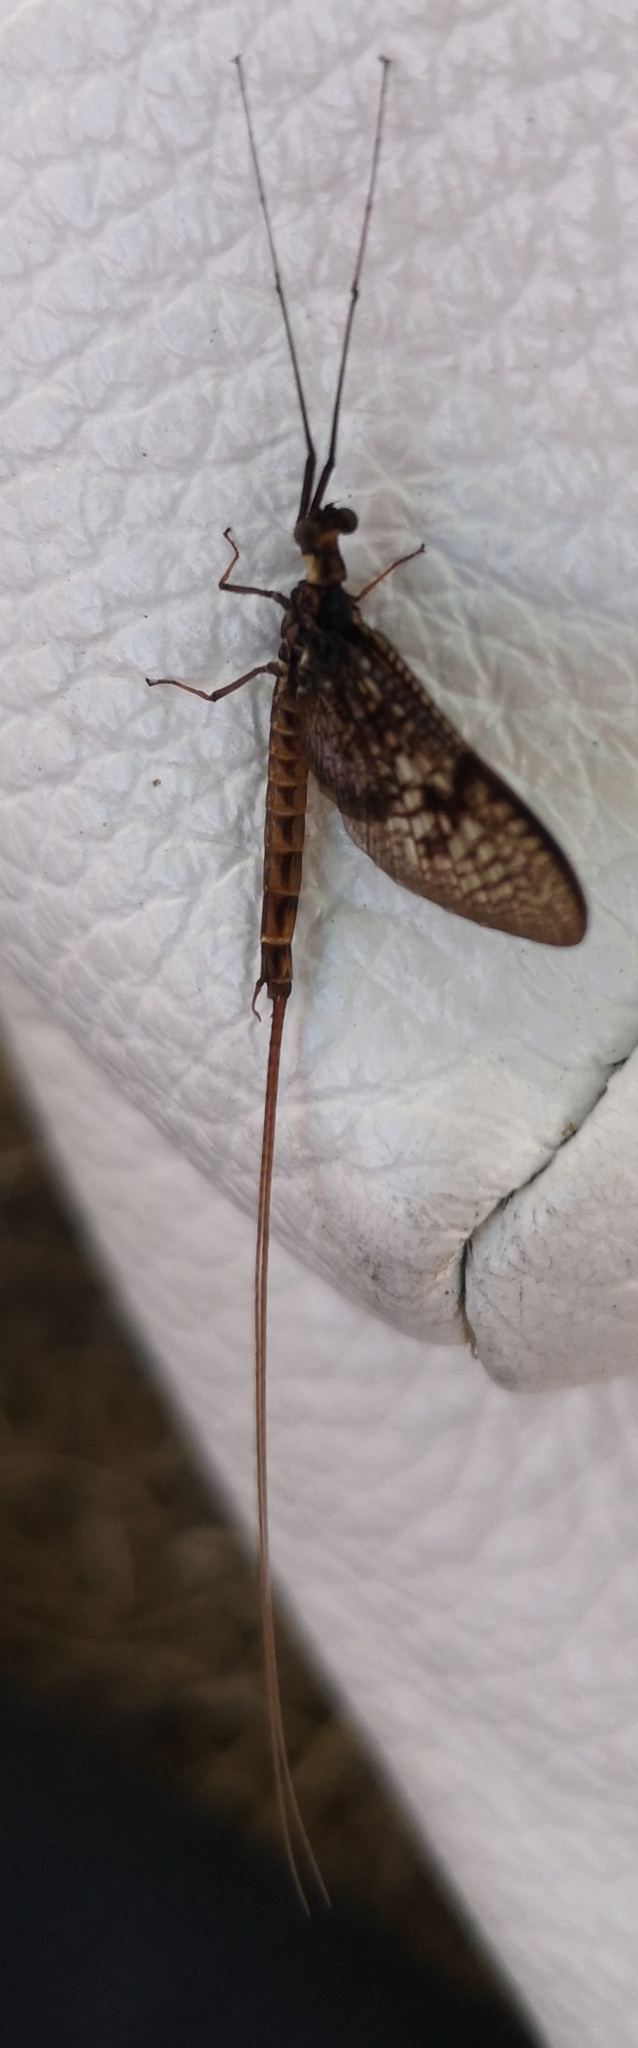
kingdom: Animalia
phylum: Arthropoda
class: Insecta
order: Ephemeroptera
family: Ephemeridae
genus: Ephemera
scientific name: Ephemera vulgata
